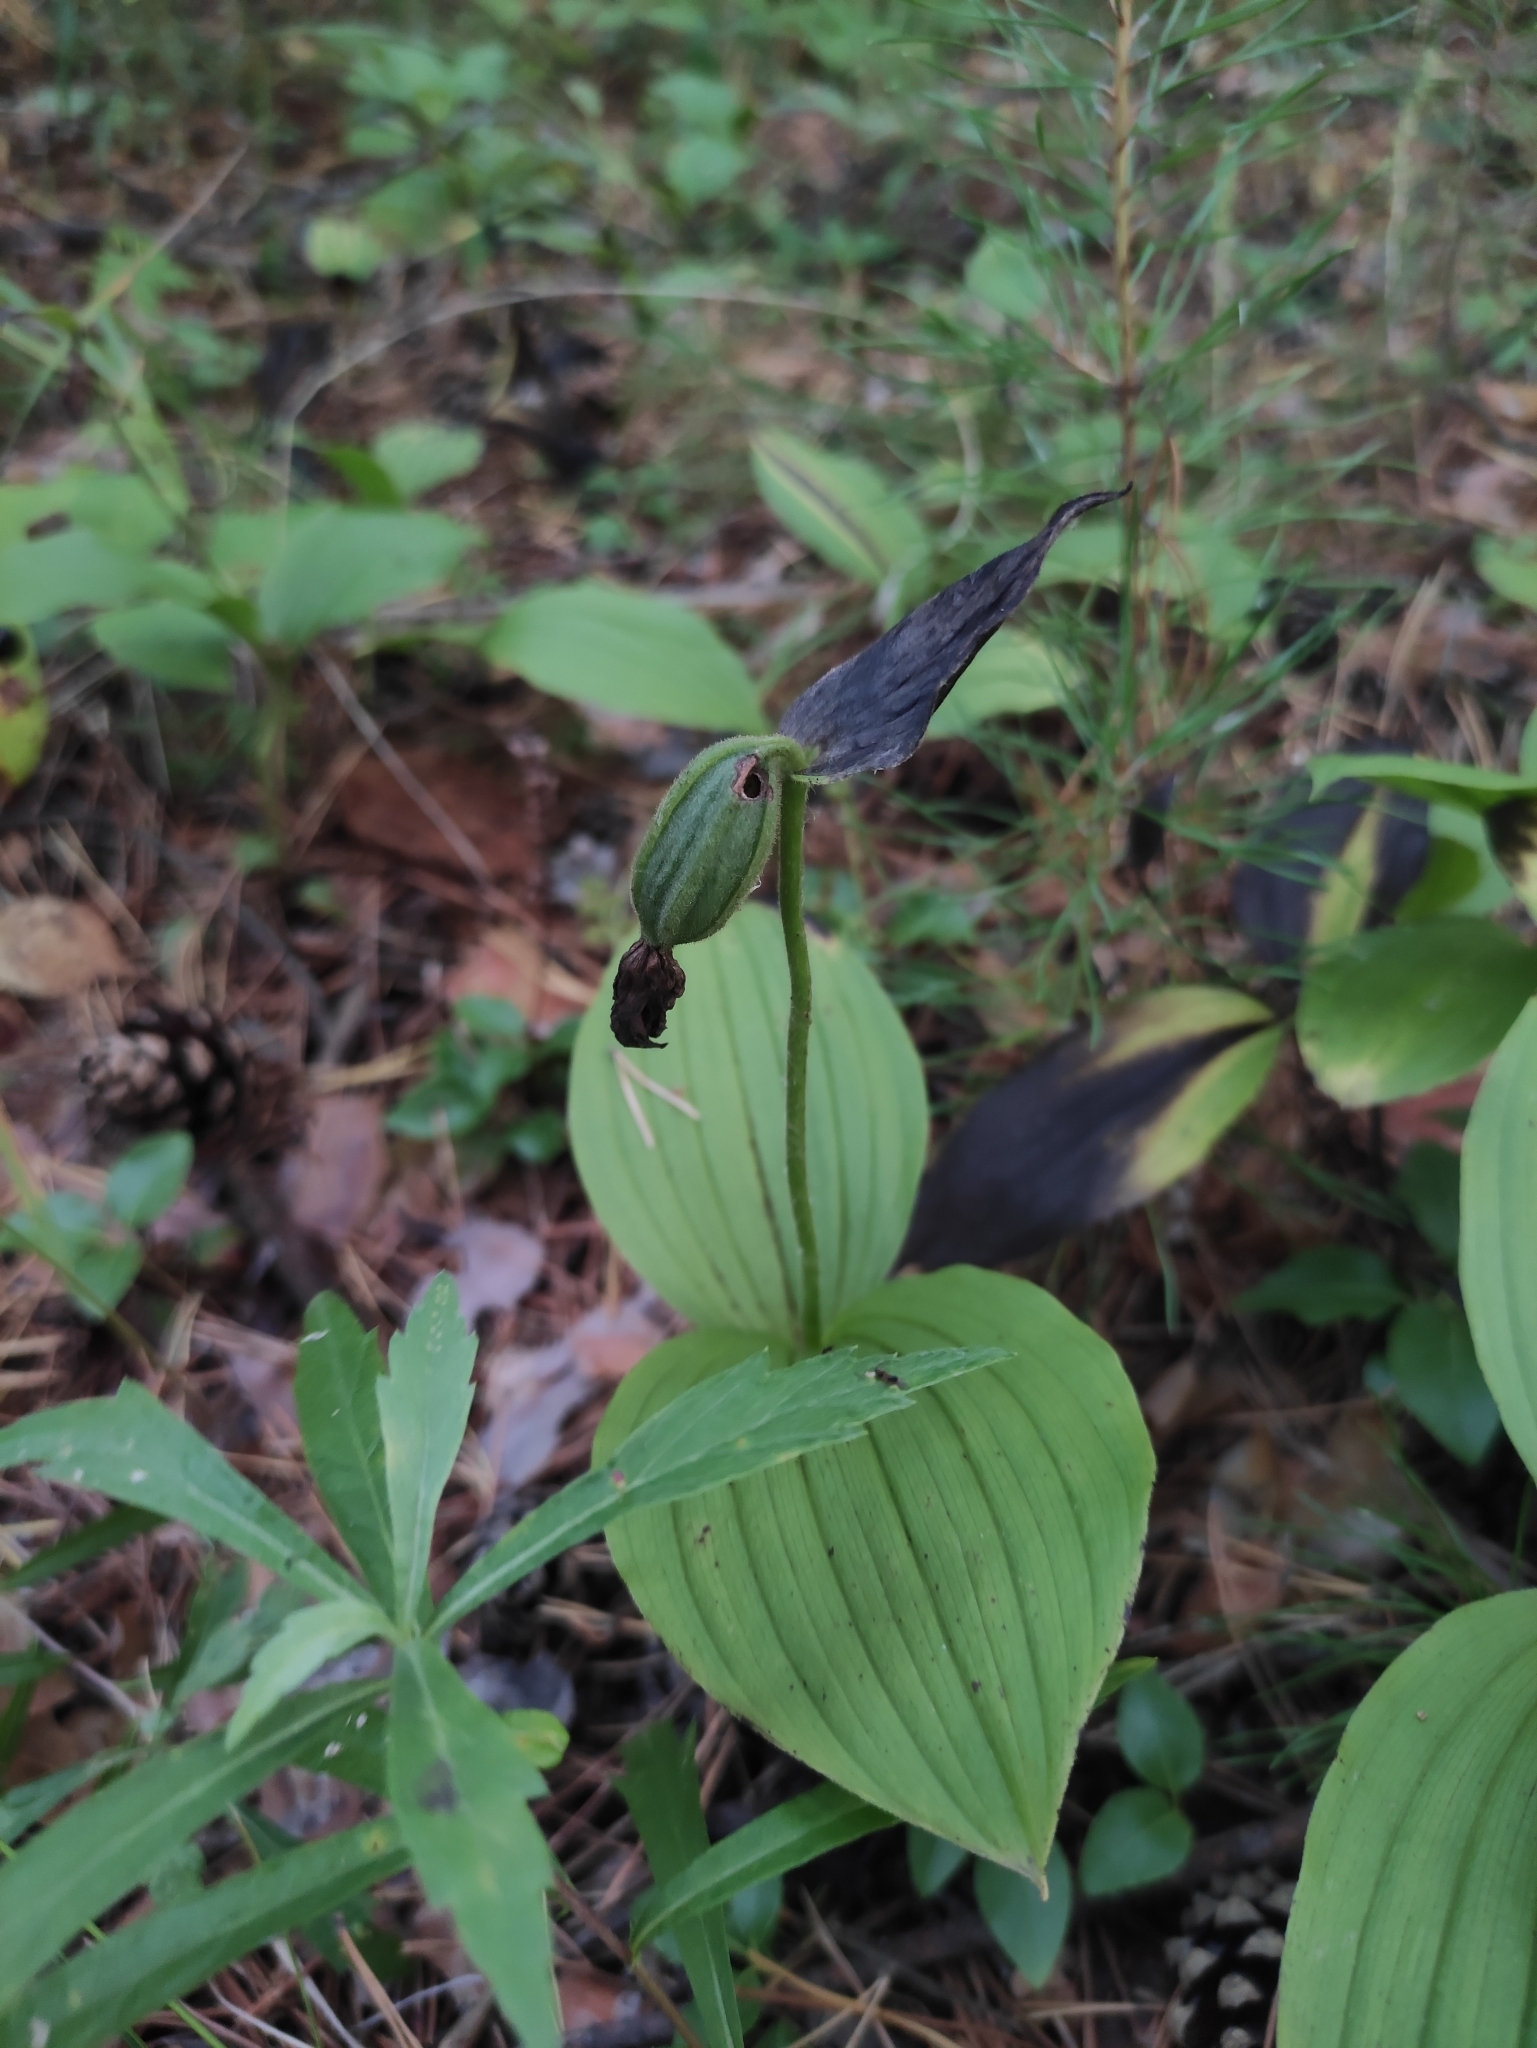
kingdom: Plantae
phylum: Tracheophyta
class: Liliopsida
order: Asparagales
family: Orchidaceae
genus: Cypripedium
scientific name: Cypripedium guttatum
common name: Pink lady slipper
